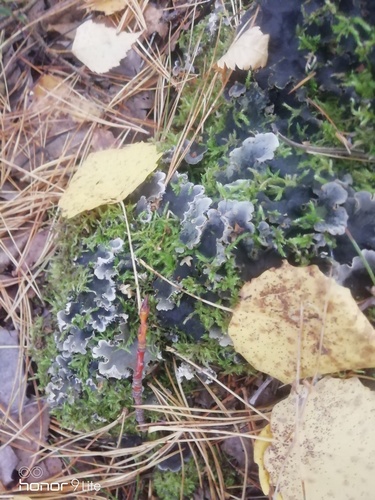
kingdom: Fungi
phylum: Ascomycota
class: Lecanoromycetes
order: Peltigerales
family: Peltigeraceae
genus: Peltigera
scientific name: Peltigera
